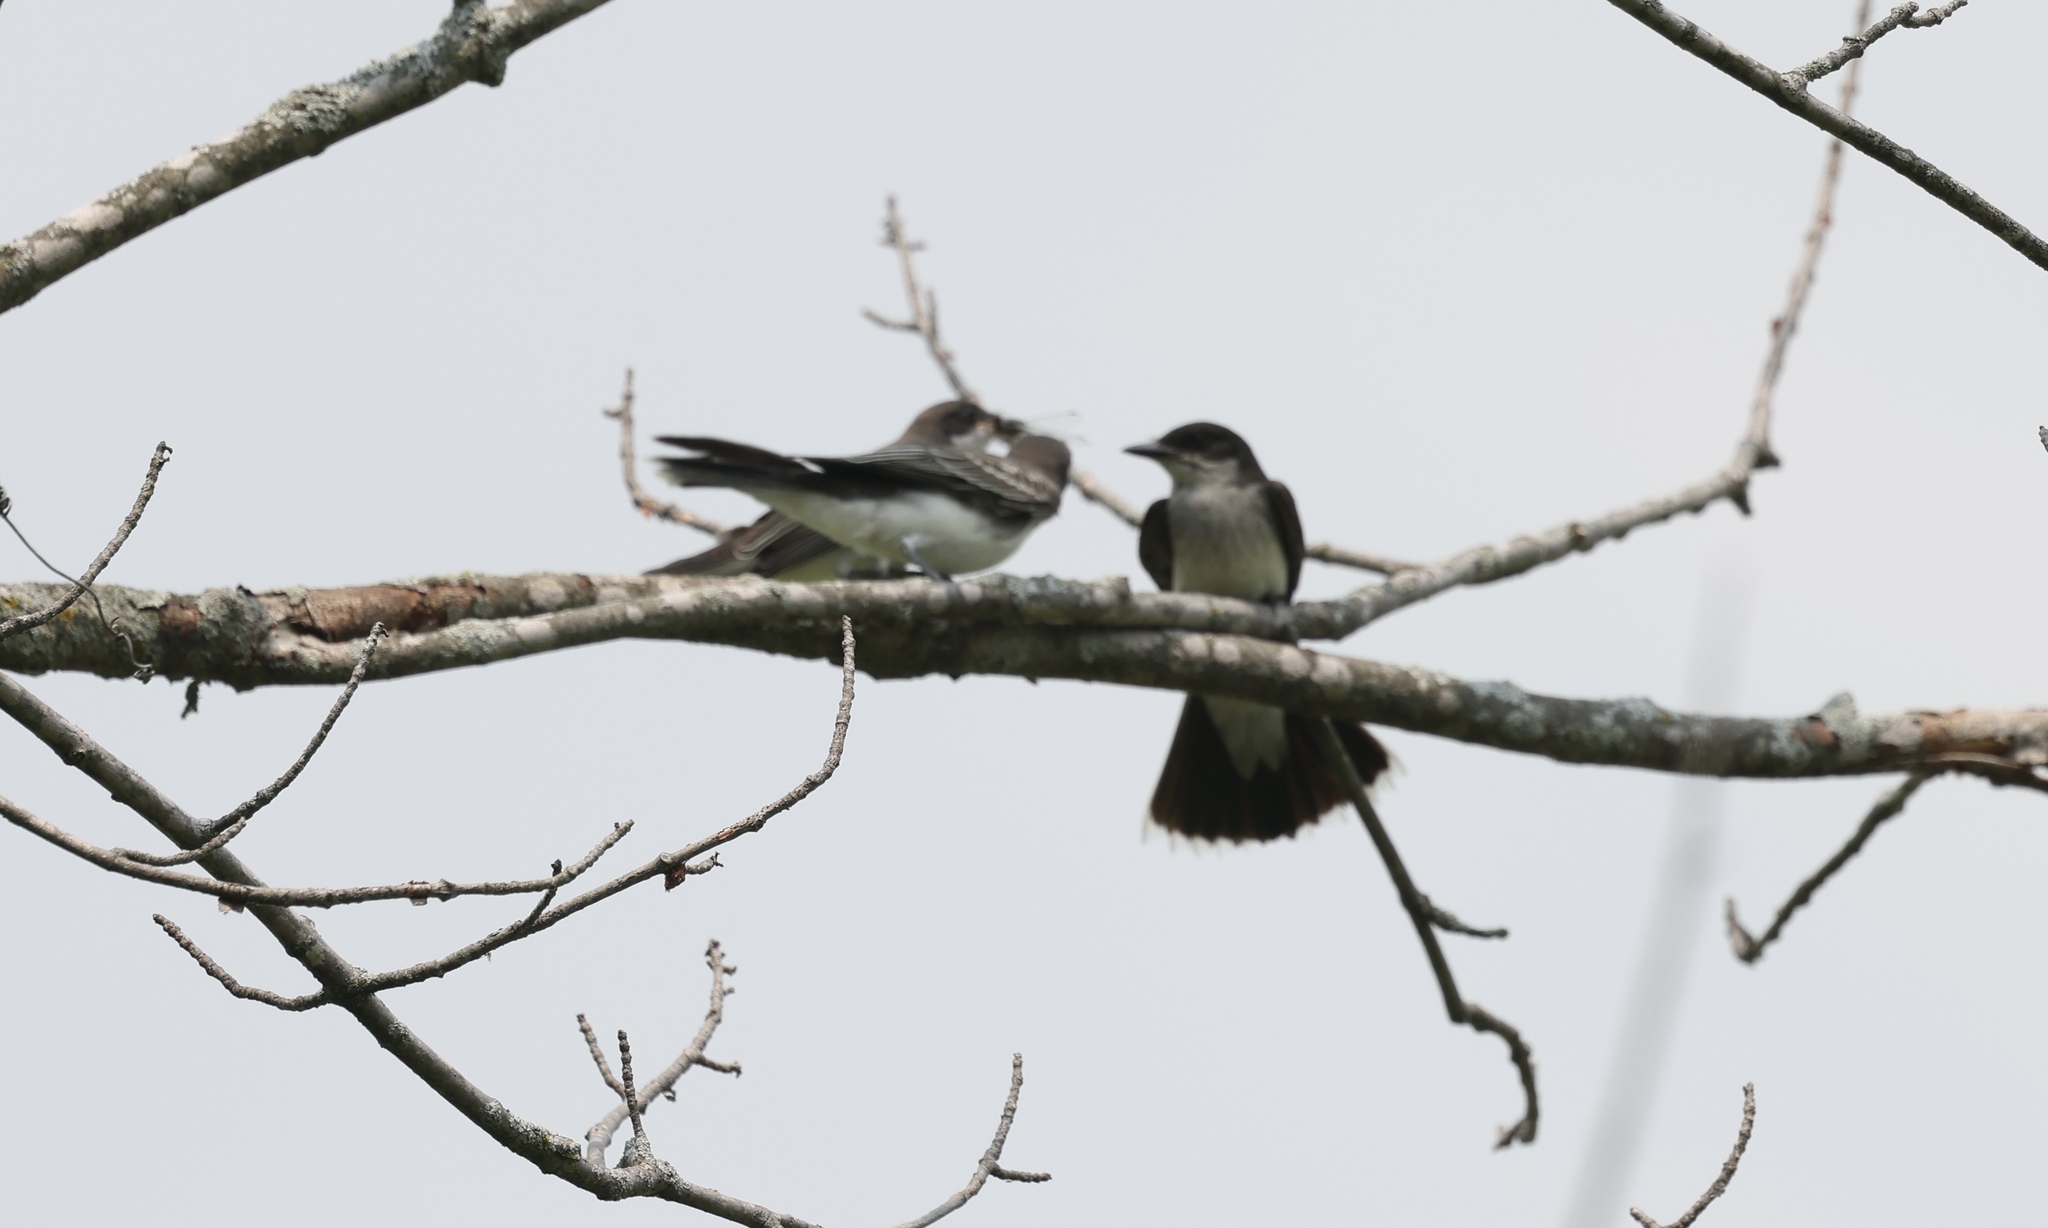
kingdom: Animalia
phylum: Chordata
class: Aves
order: Passeriformes
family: Tyrannidae
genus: Tyrannus
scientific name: Tyrannus tyrannus
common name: Eastern kingbird
